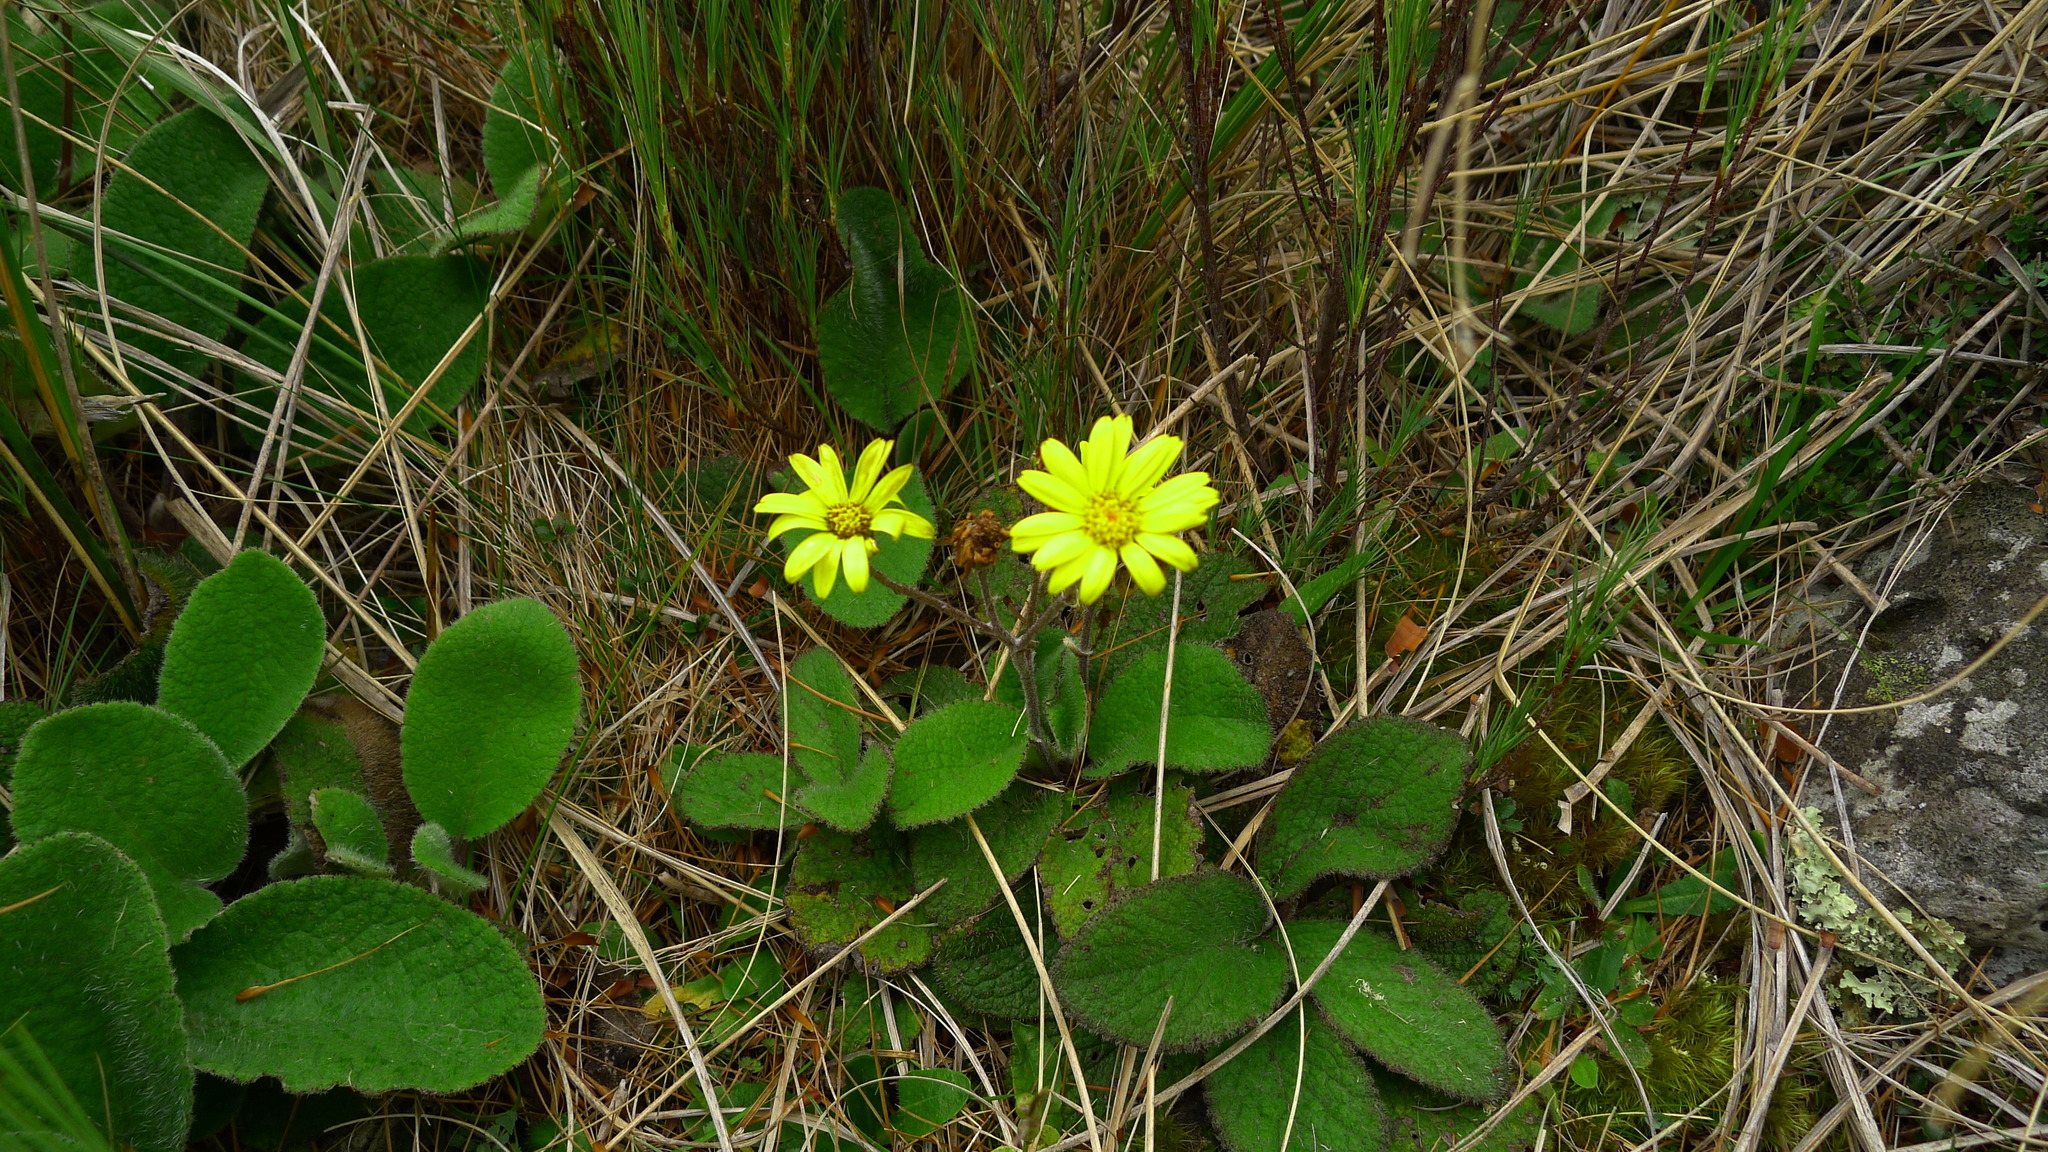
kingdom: Plantae
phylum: Tracheophyta
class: Magnoliopsida
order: Asterales
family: Asteraceae
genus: Brachyglottis
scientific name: Brachyglottis lagopus
